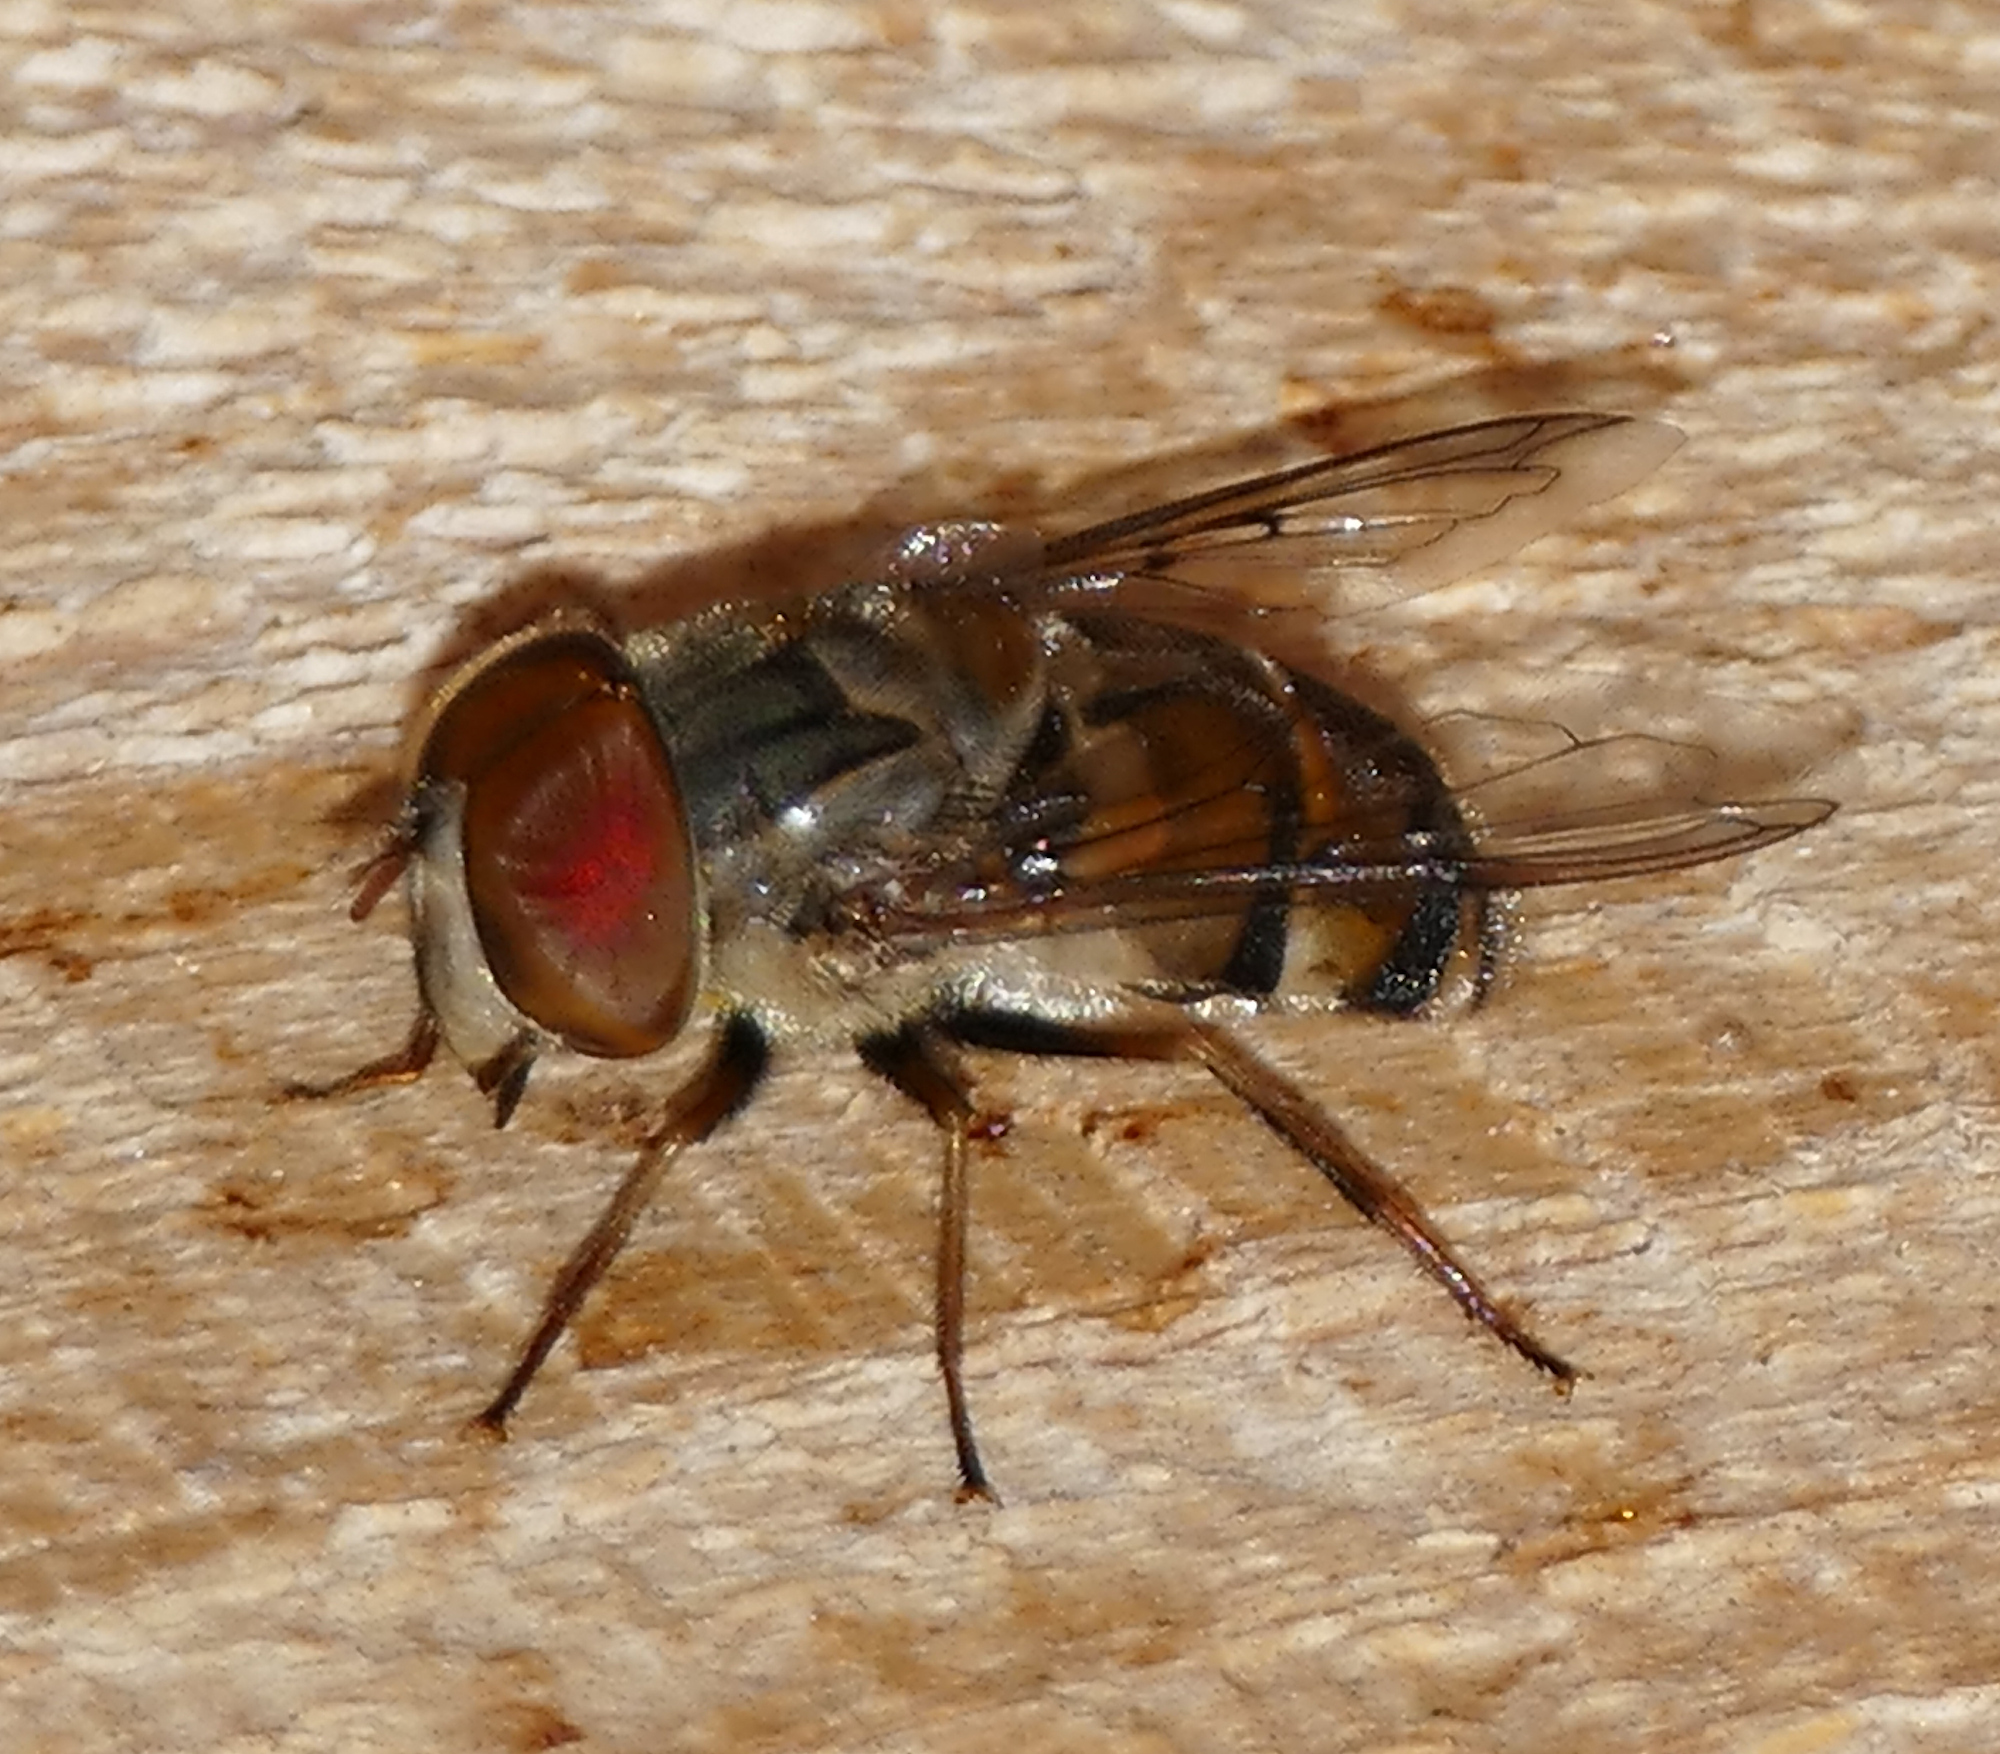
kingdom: Animalia
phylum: Arthropoda
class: Insecta
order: Diptera
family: Syrphidae
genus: Copestylum
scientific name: Copestylum isabellina
